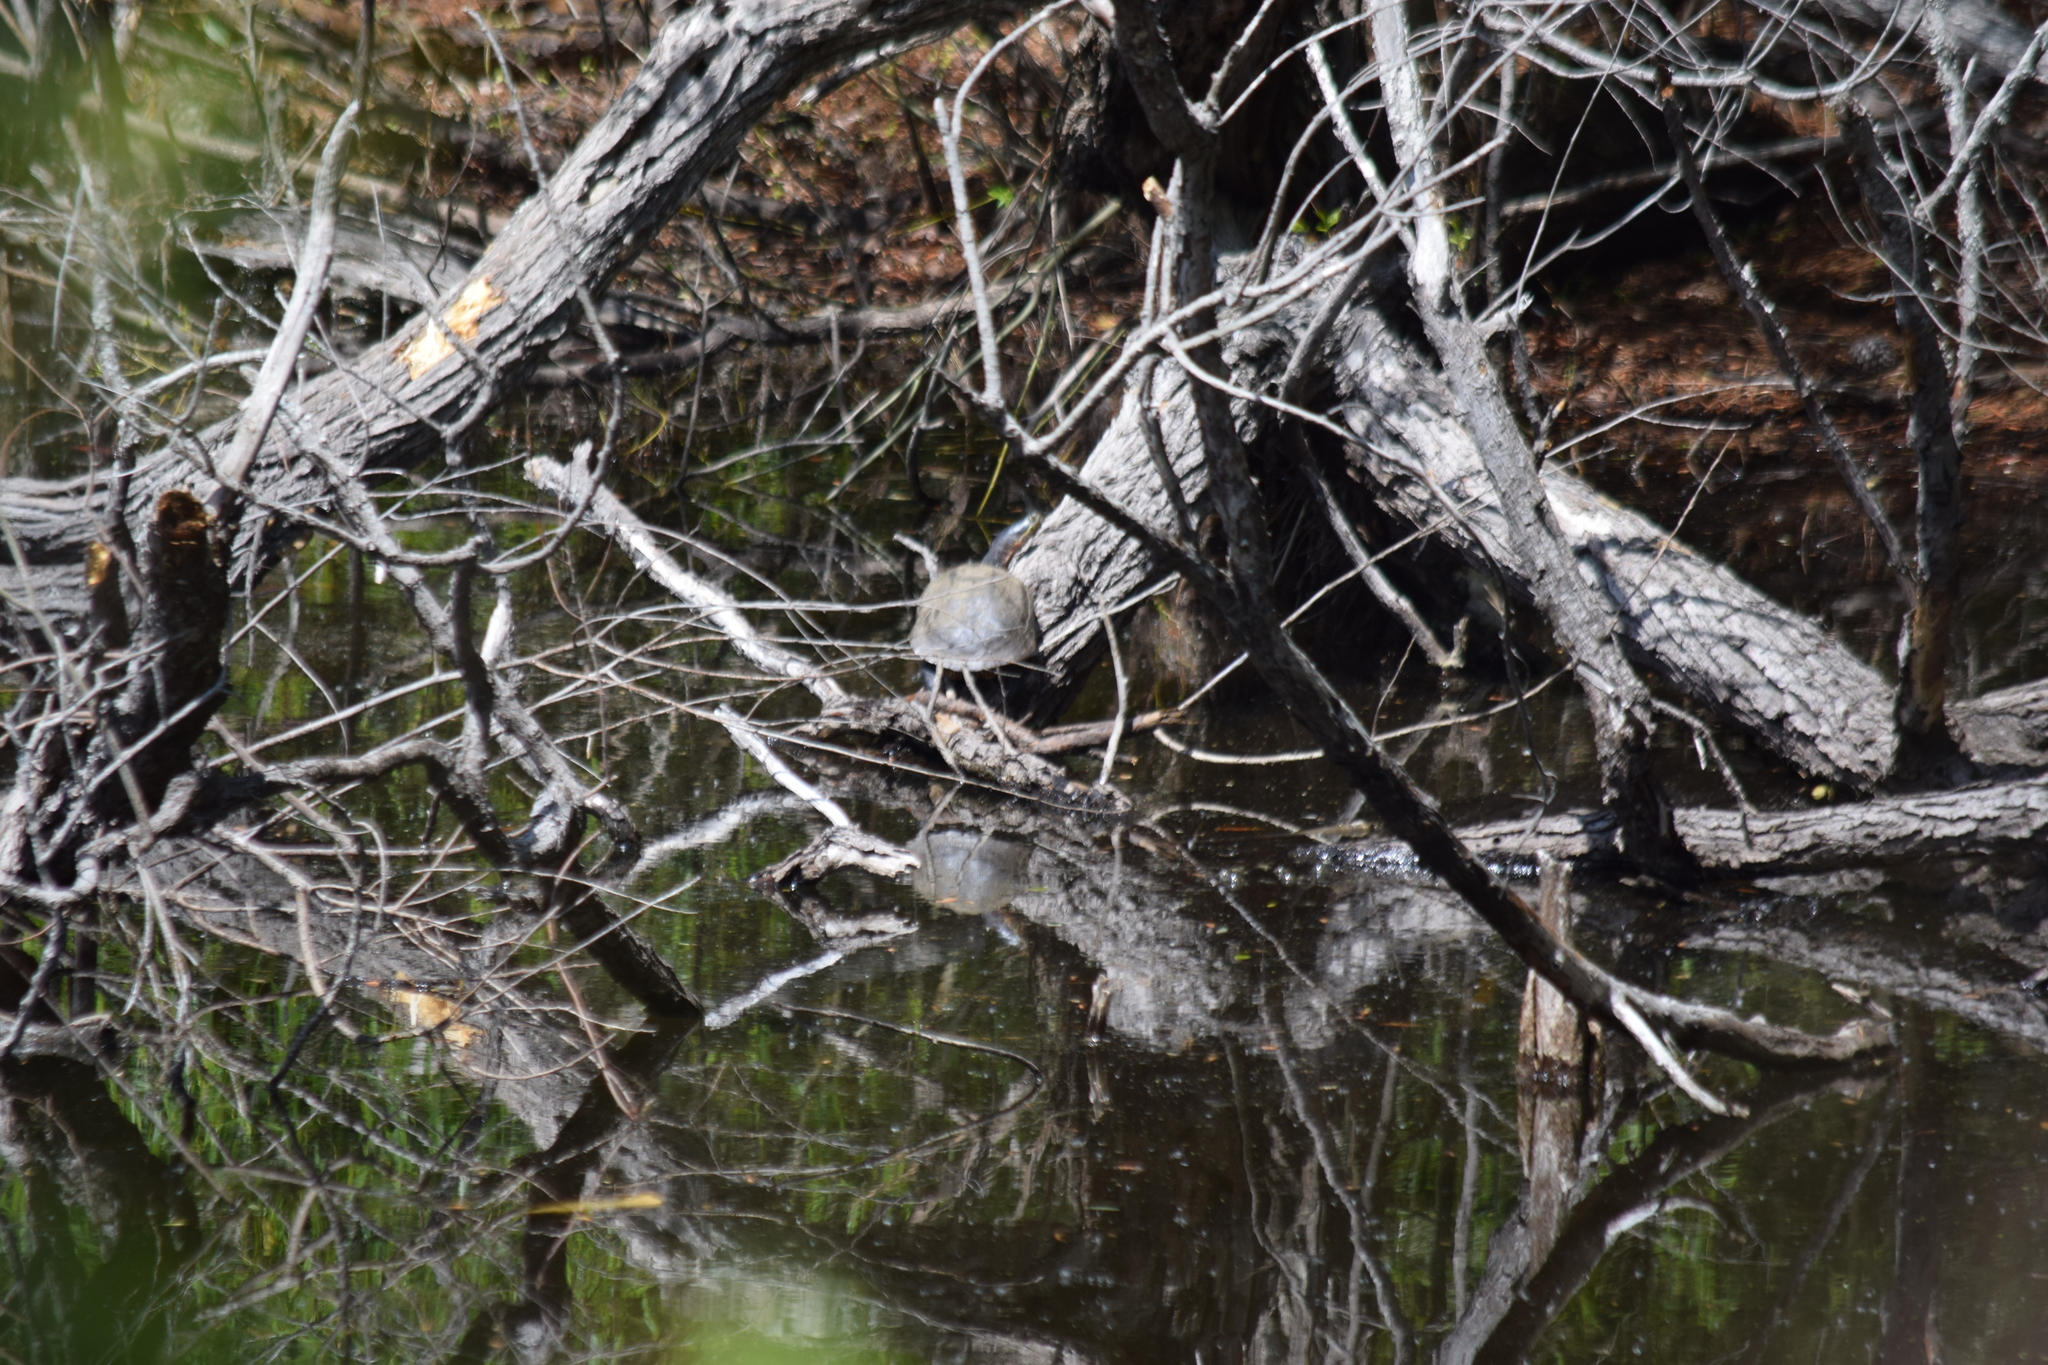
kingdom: Animalia
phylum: Chordata
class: Testudines
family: Emydidae
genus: Deirochelys
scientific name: Deirochelys reticularia
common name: Chicken turtle
